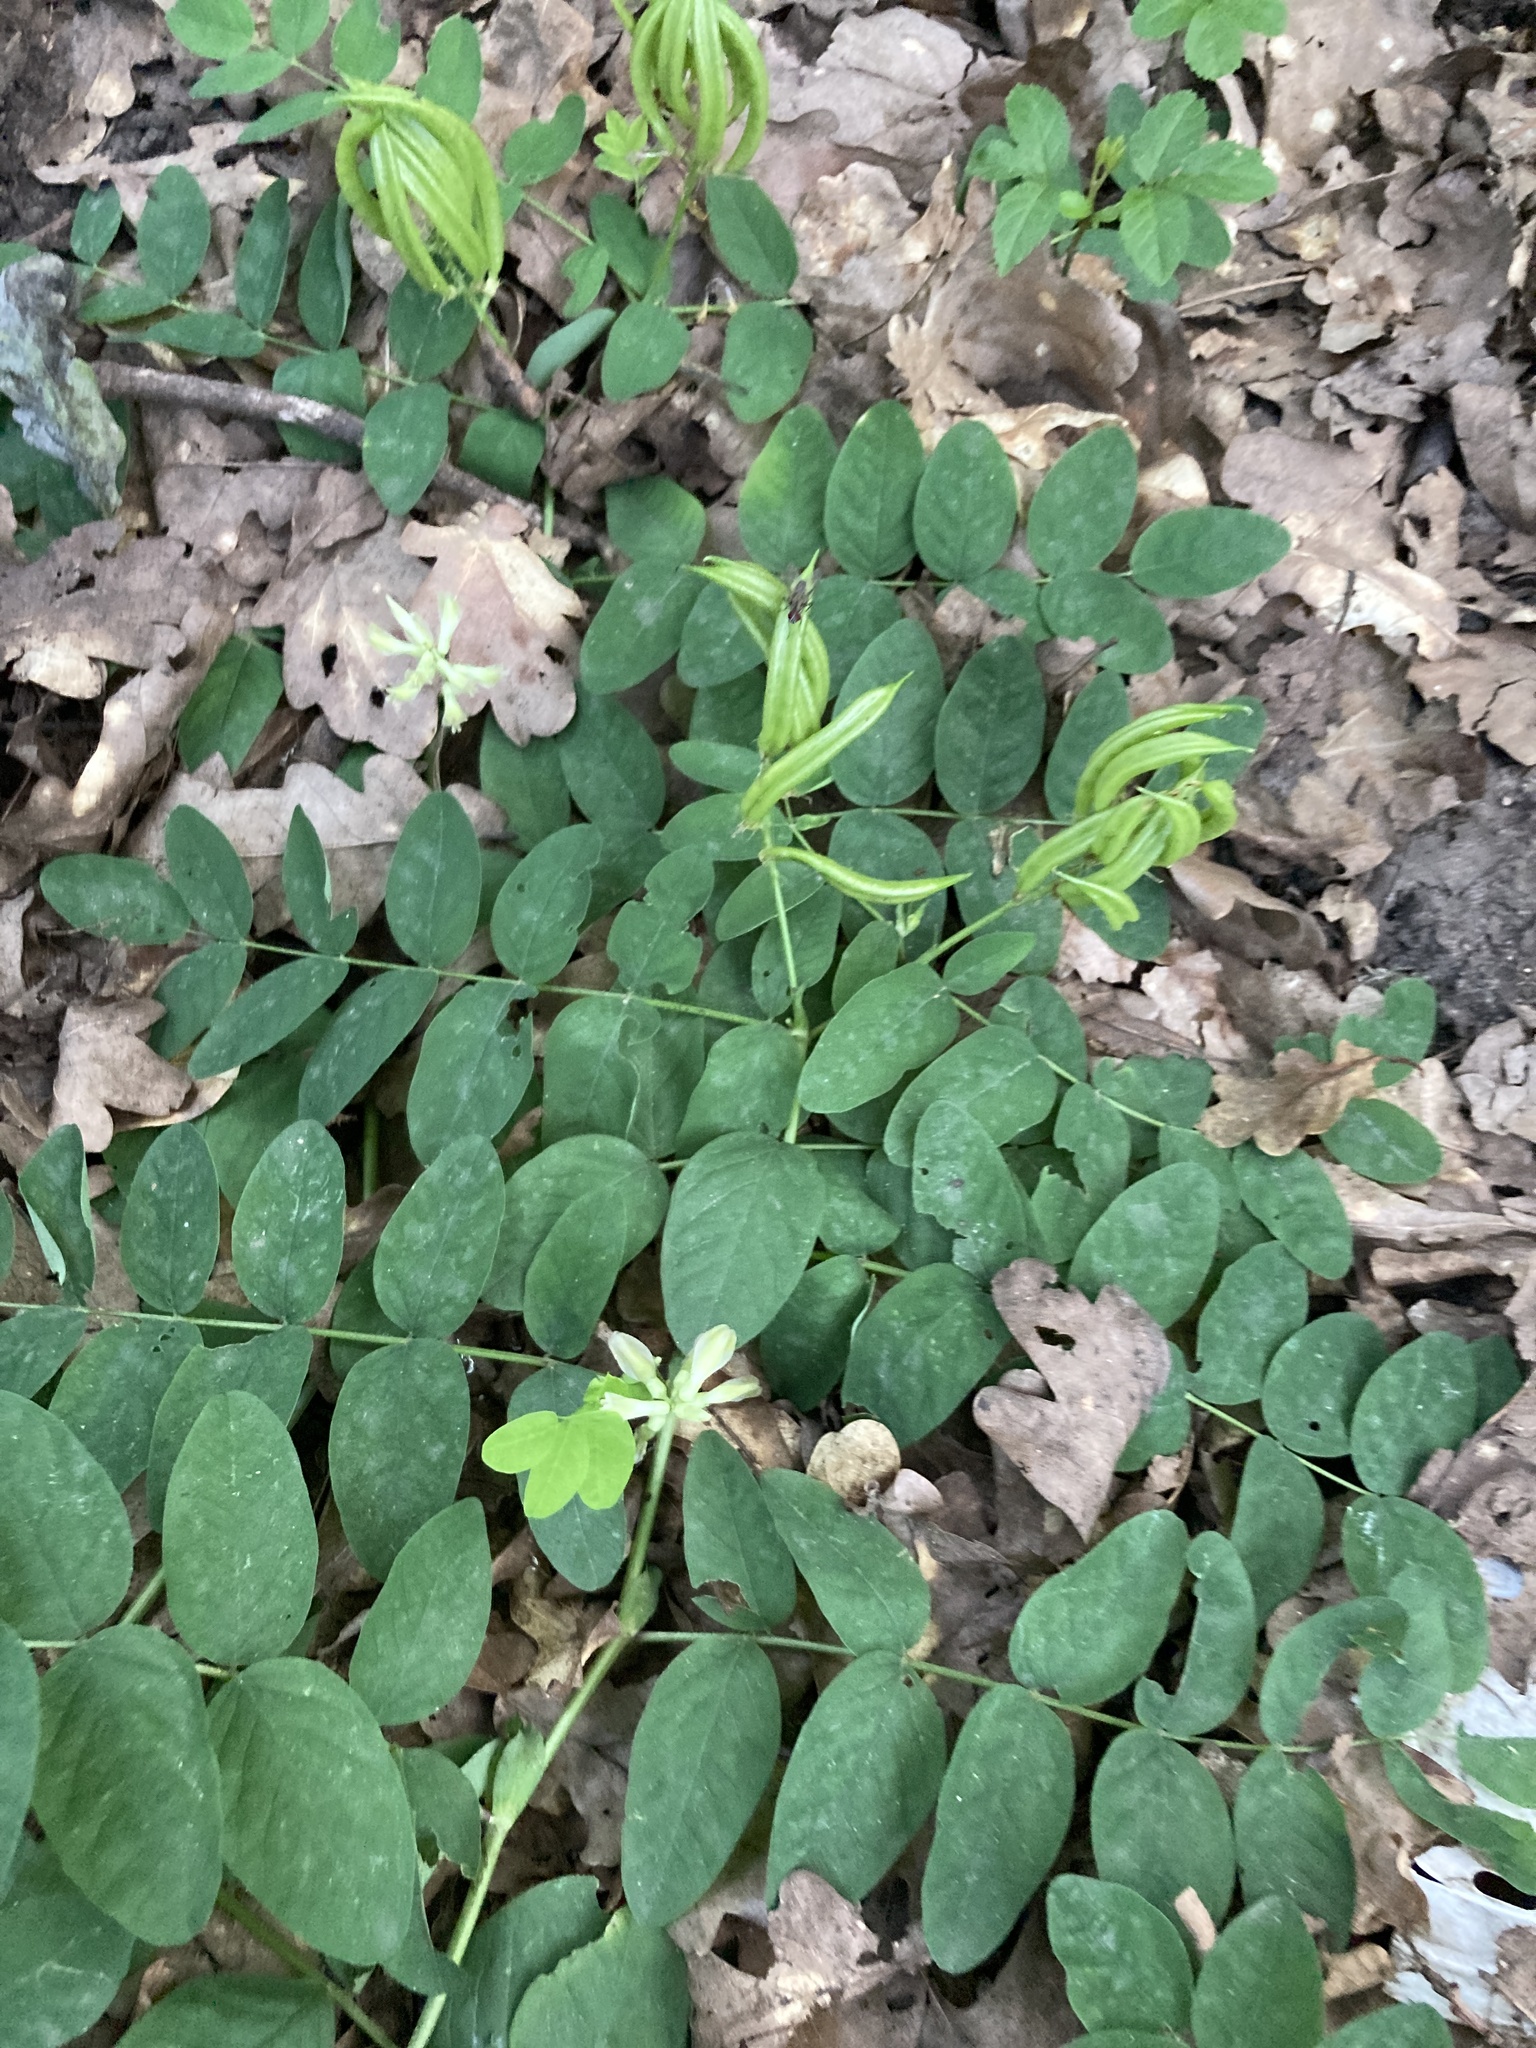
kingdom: Plantae
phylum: Tracheophyta
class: Magnoliopsida
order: Fabales
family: Fabaceae
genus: Astragalus
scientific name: Astragalus glycyphyllos
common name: Wild liquorice
